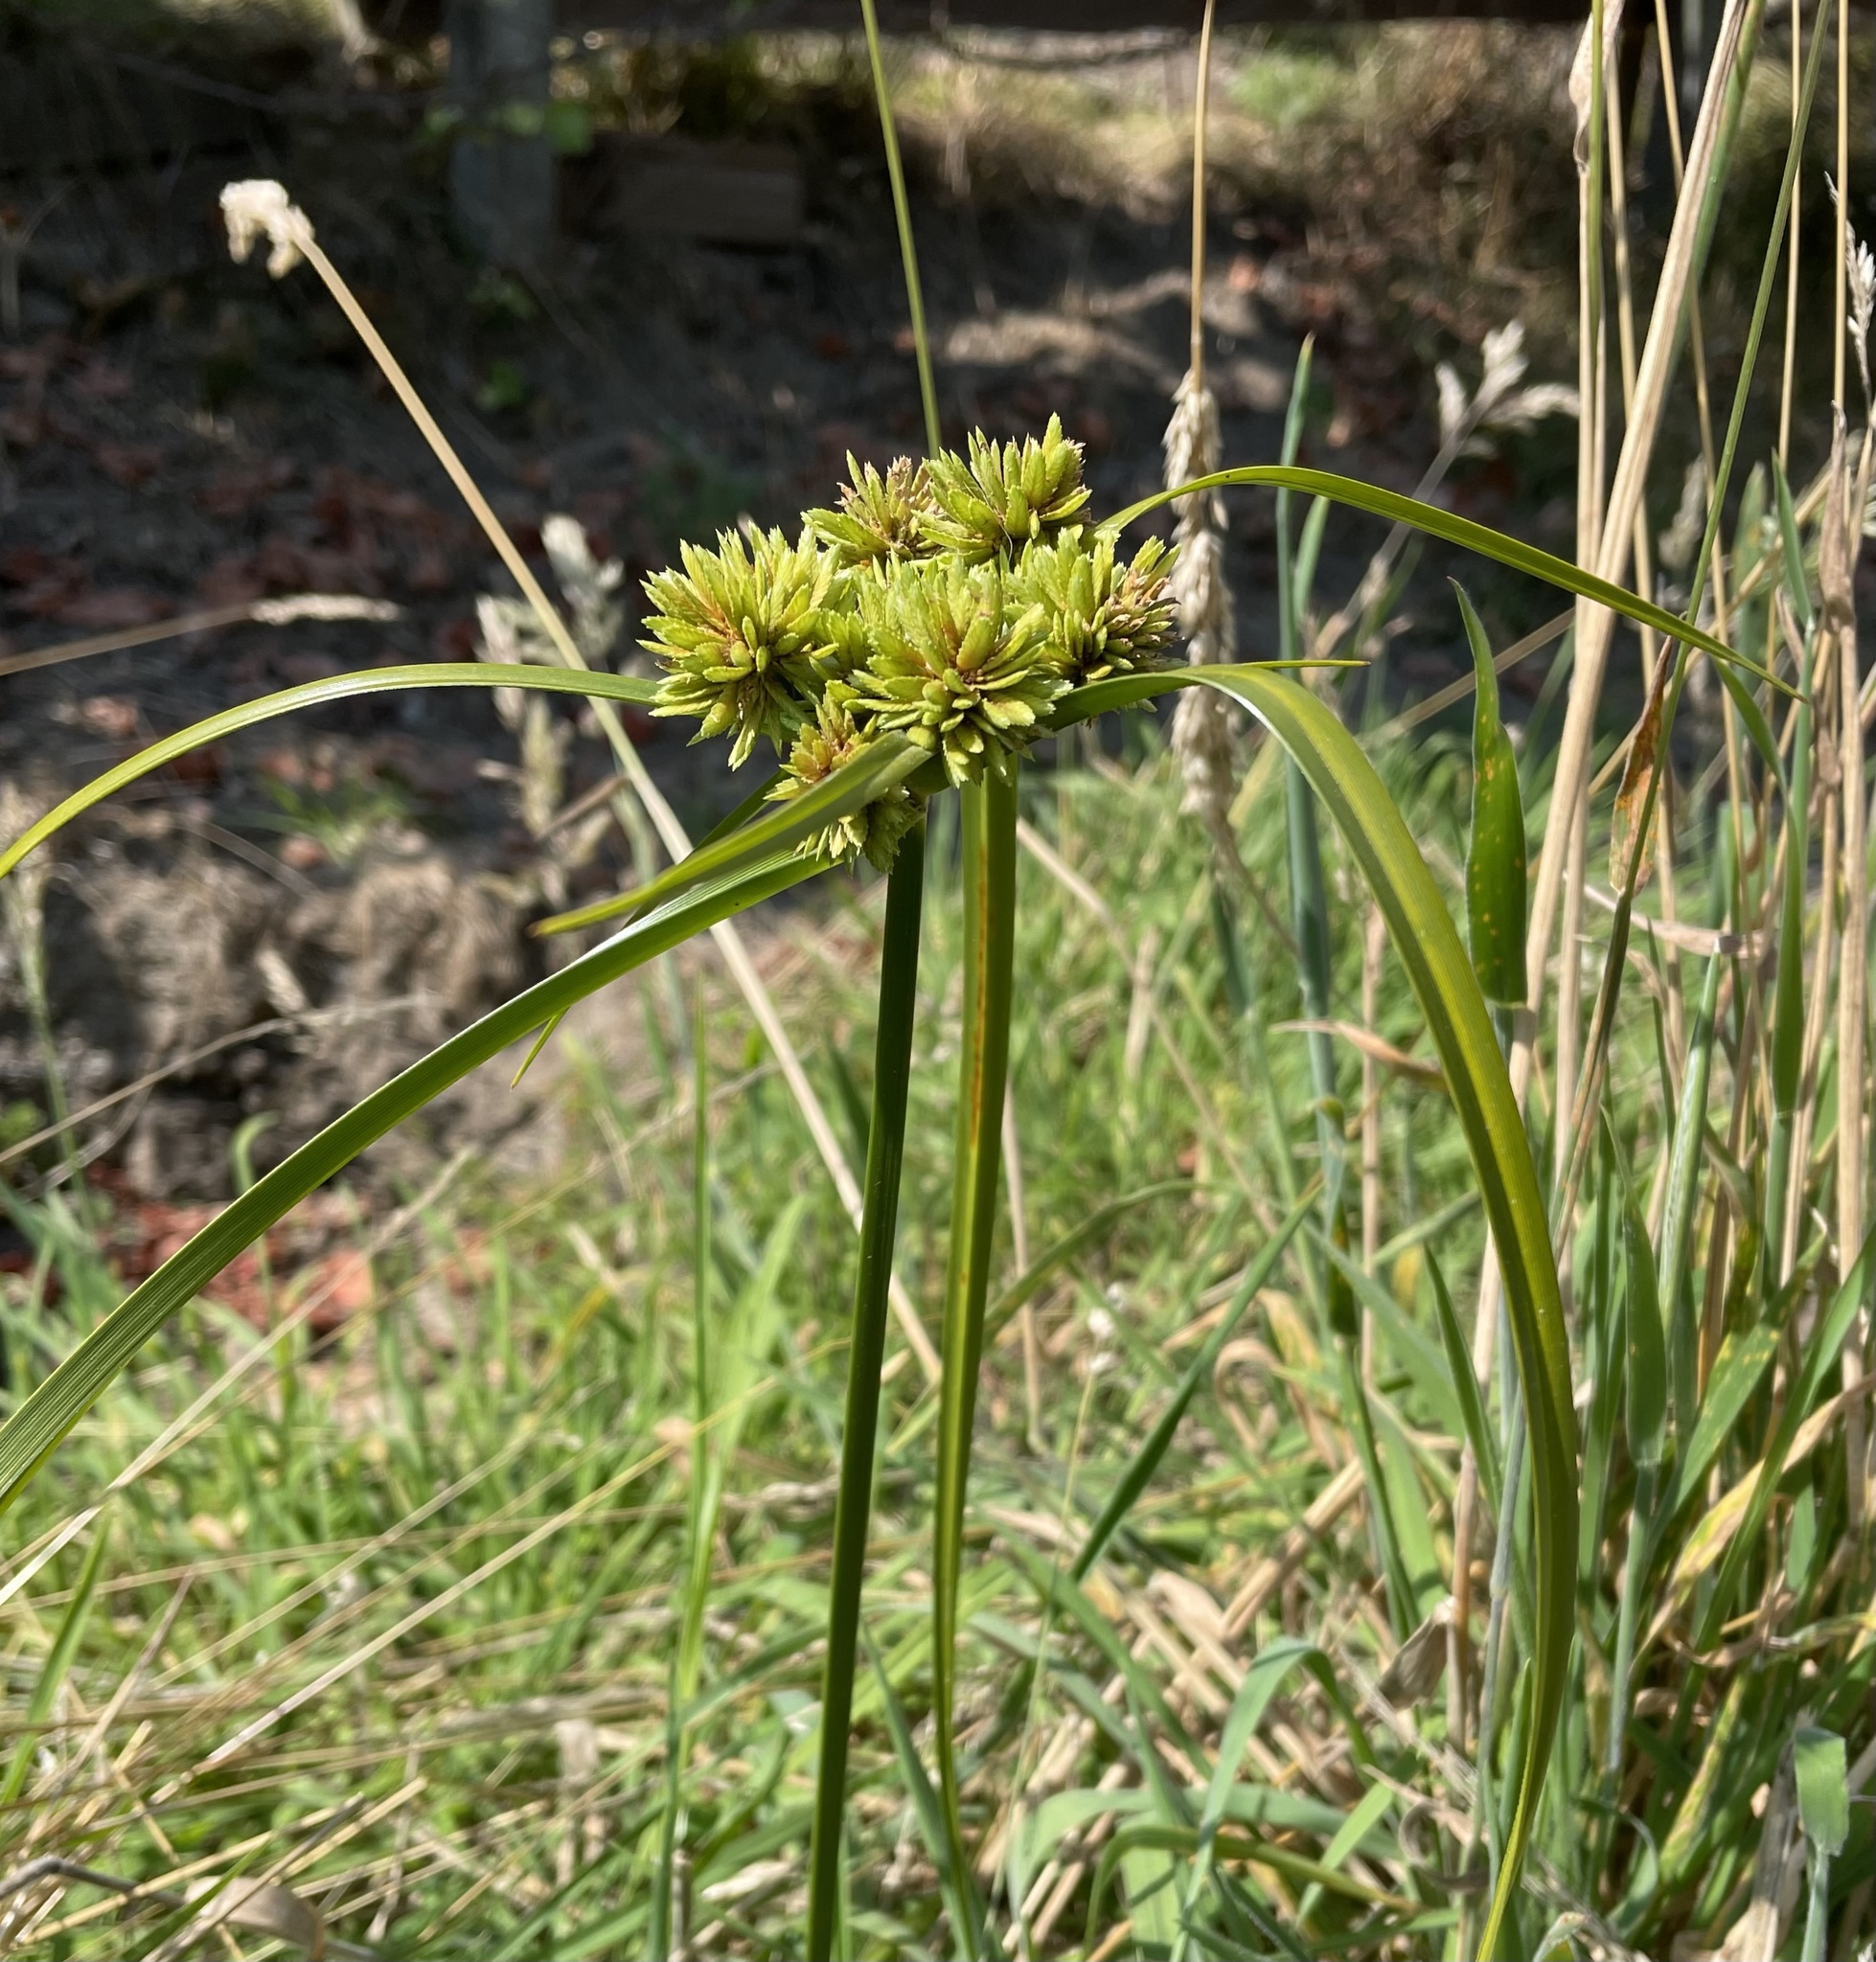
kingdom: Plantae
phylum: Tracheophyta
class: Liliopsida
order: Poales
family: Cyperaceae
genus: Cyperus
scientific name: Cyperus eragrostis
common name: Tall flatsedge
